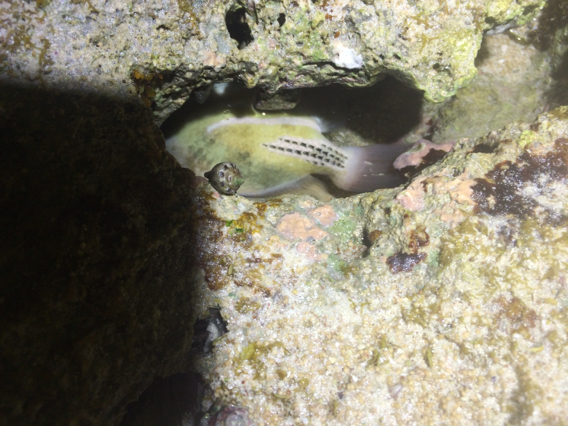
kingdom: Animalia
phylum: Chordata
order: Tetraodontiformes
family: Balistidae
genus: Rhinecanthus
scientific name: Rhinecanthus aculeatus
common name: White-banded triggerfish
